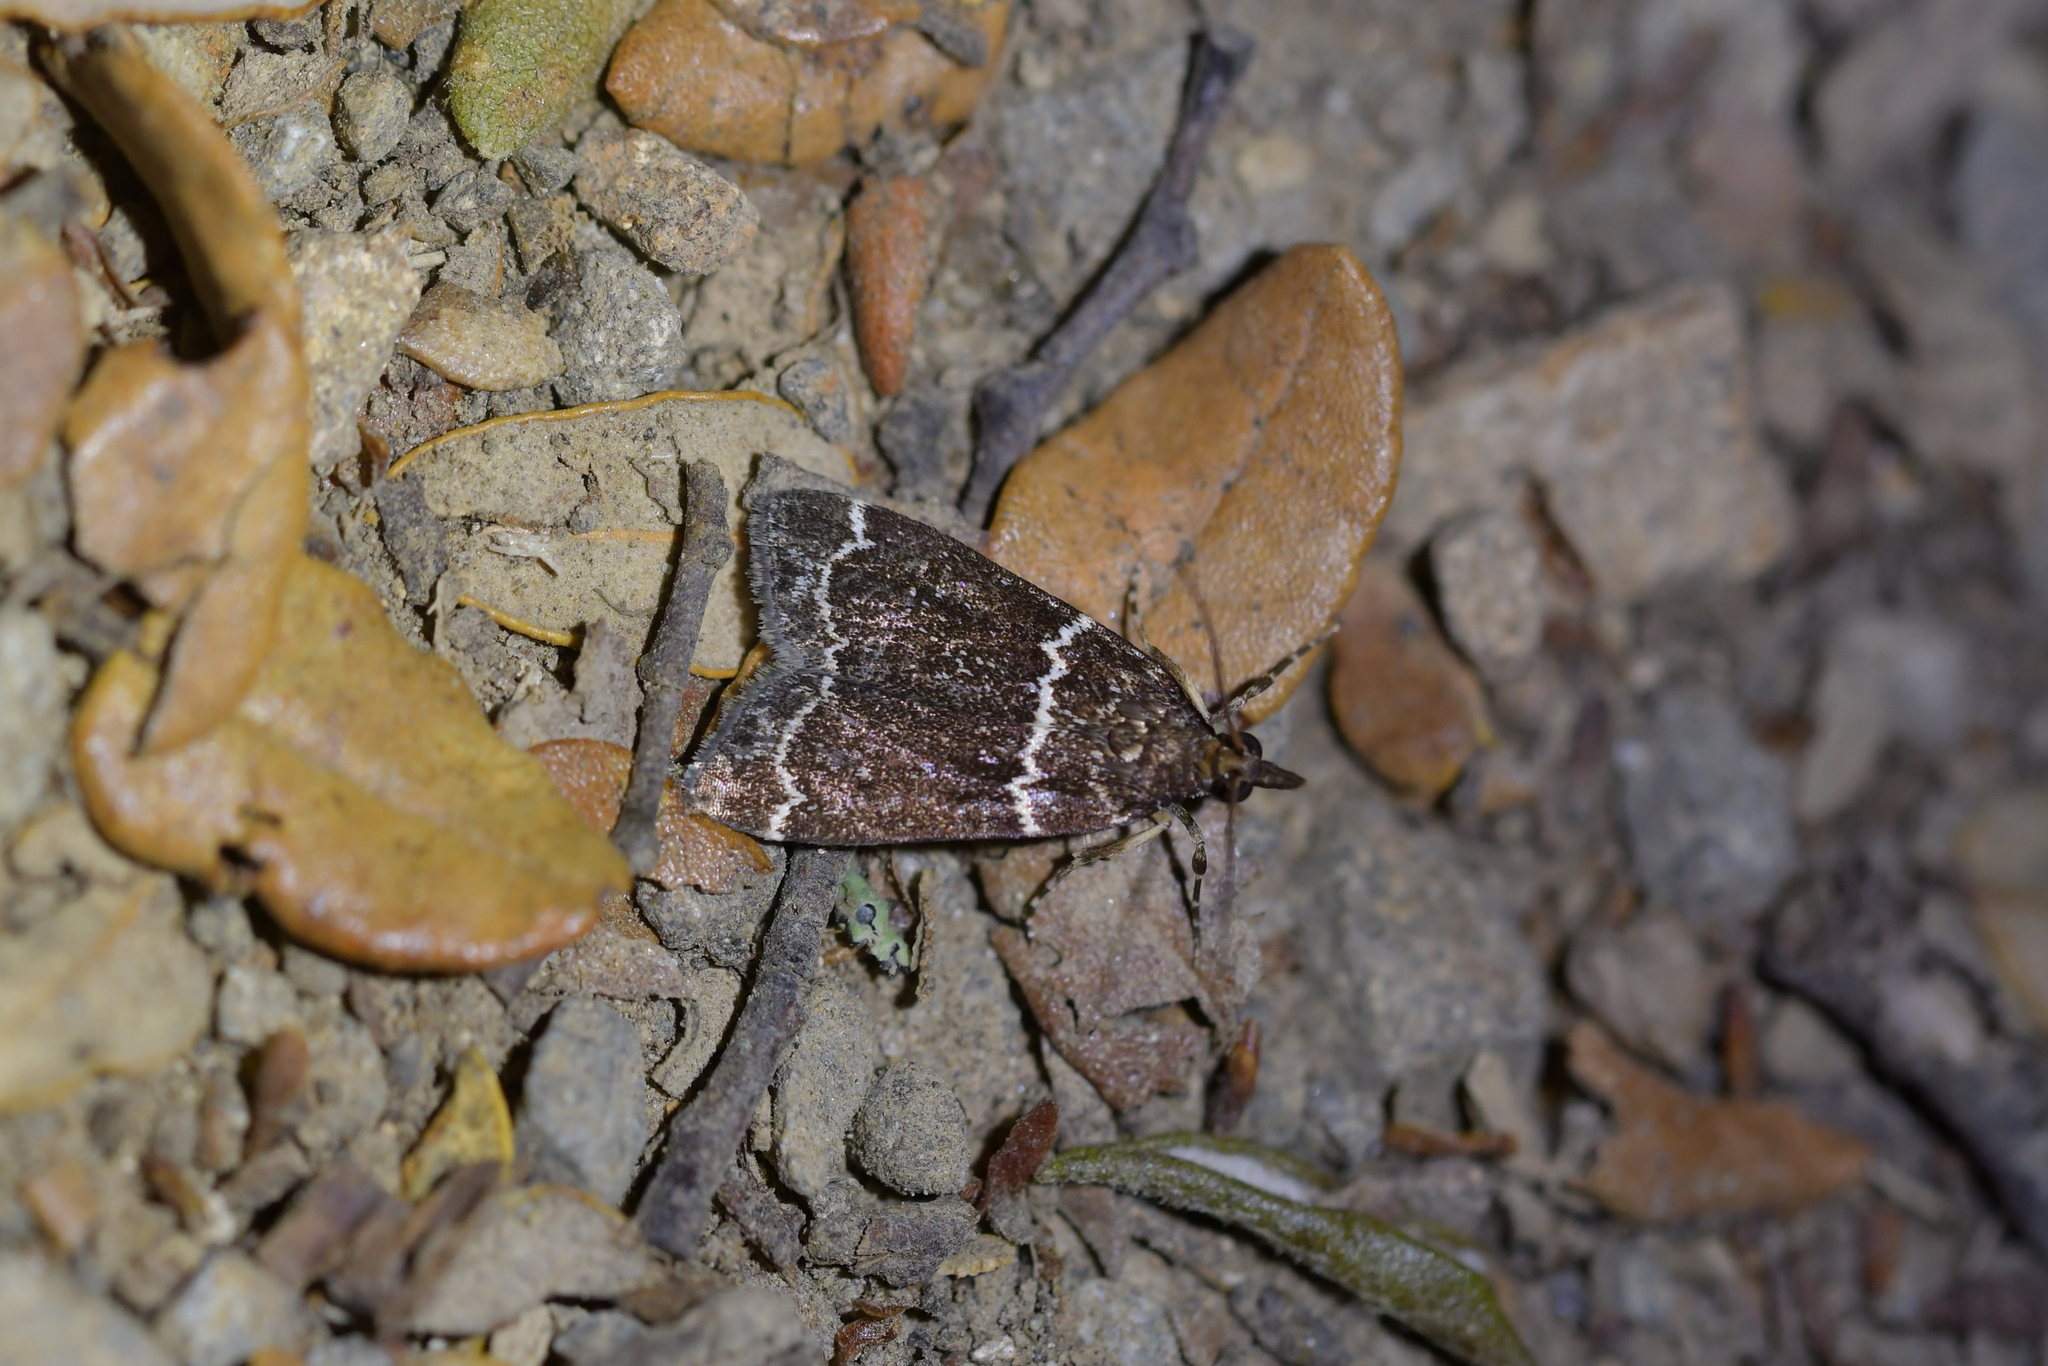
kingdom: Animalia
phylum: Arthropoda
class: Insecta
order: Lepidoptera
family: Crambidae
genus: Eudonia
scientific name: Eudonia leucogramma
